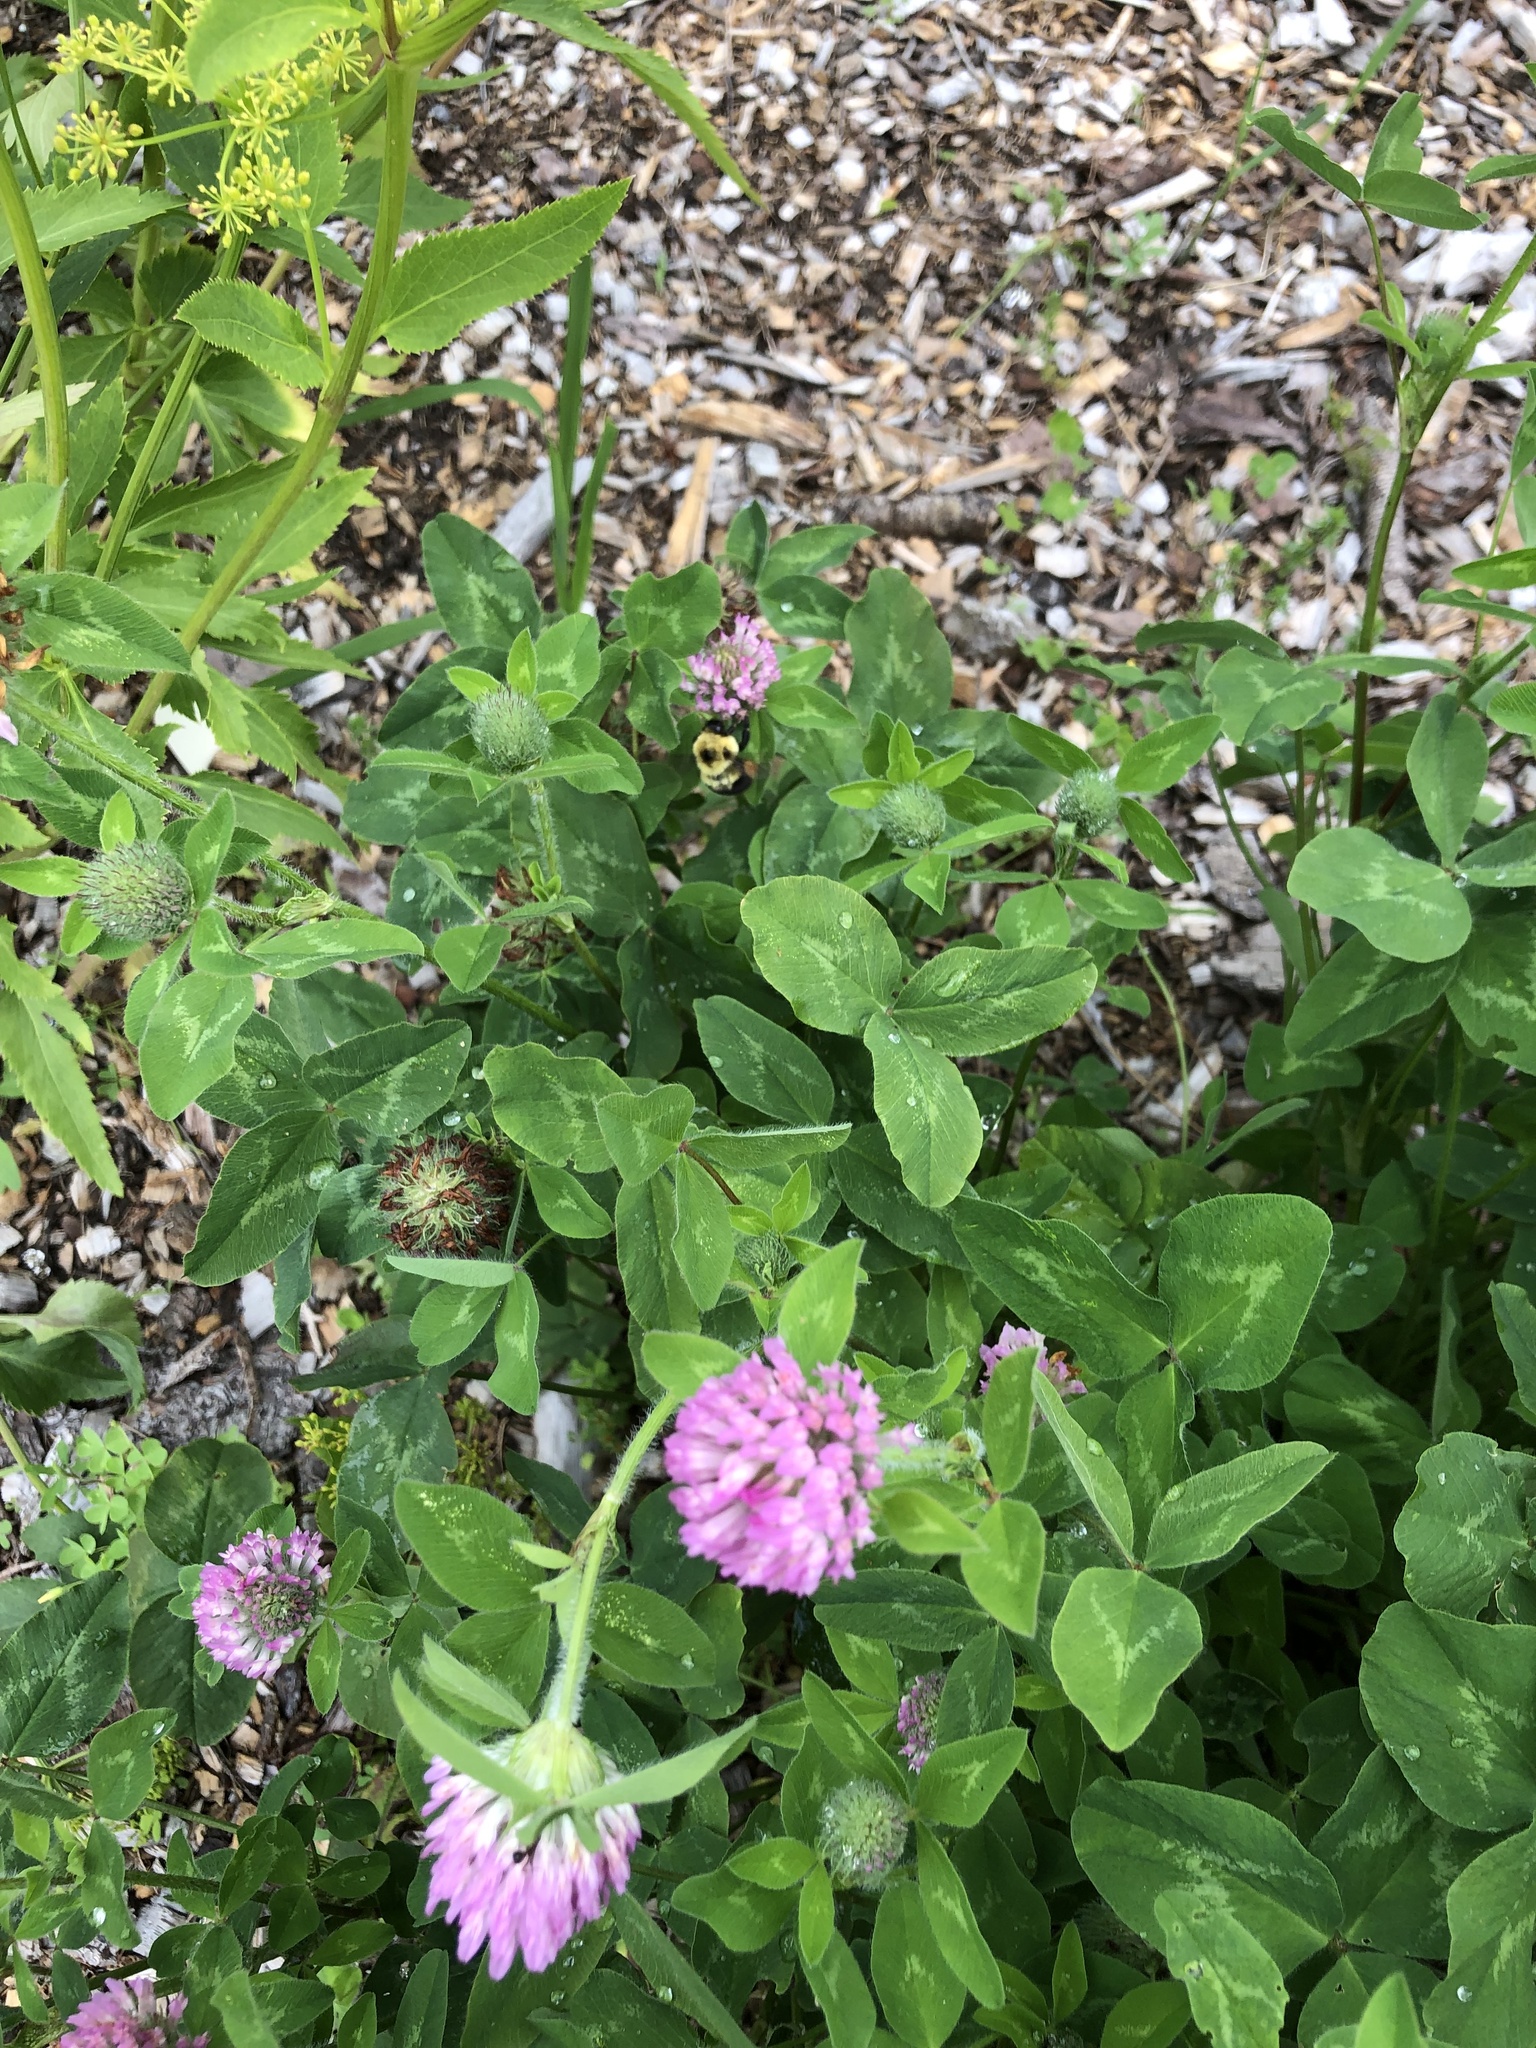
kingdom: Animalia
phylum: Arthropoda
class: Insecta
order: Hymenoptera
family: Apidae
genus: Bombus
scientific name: Bombus bimaculatus
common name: Two-spotted bumble bee
